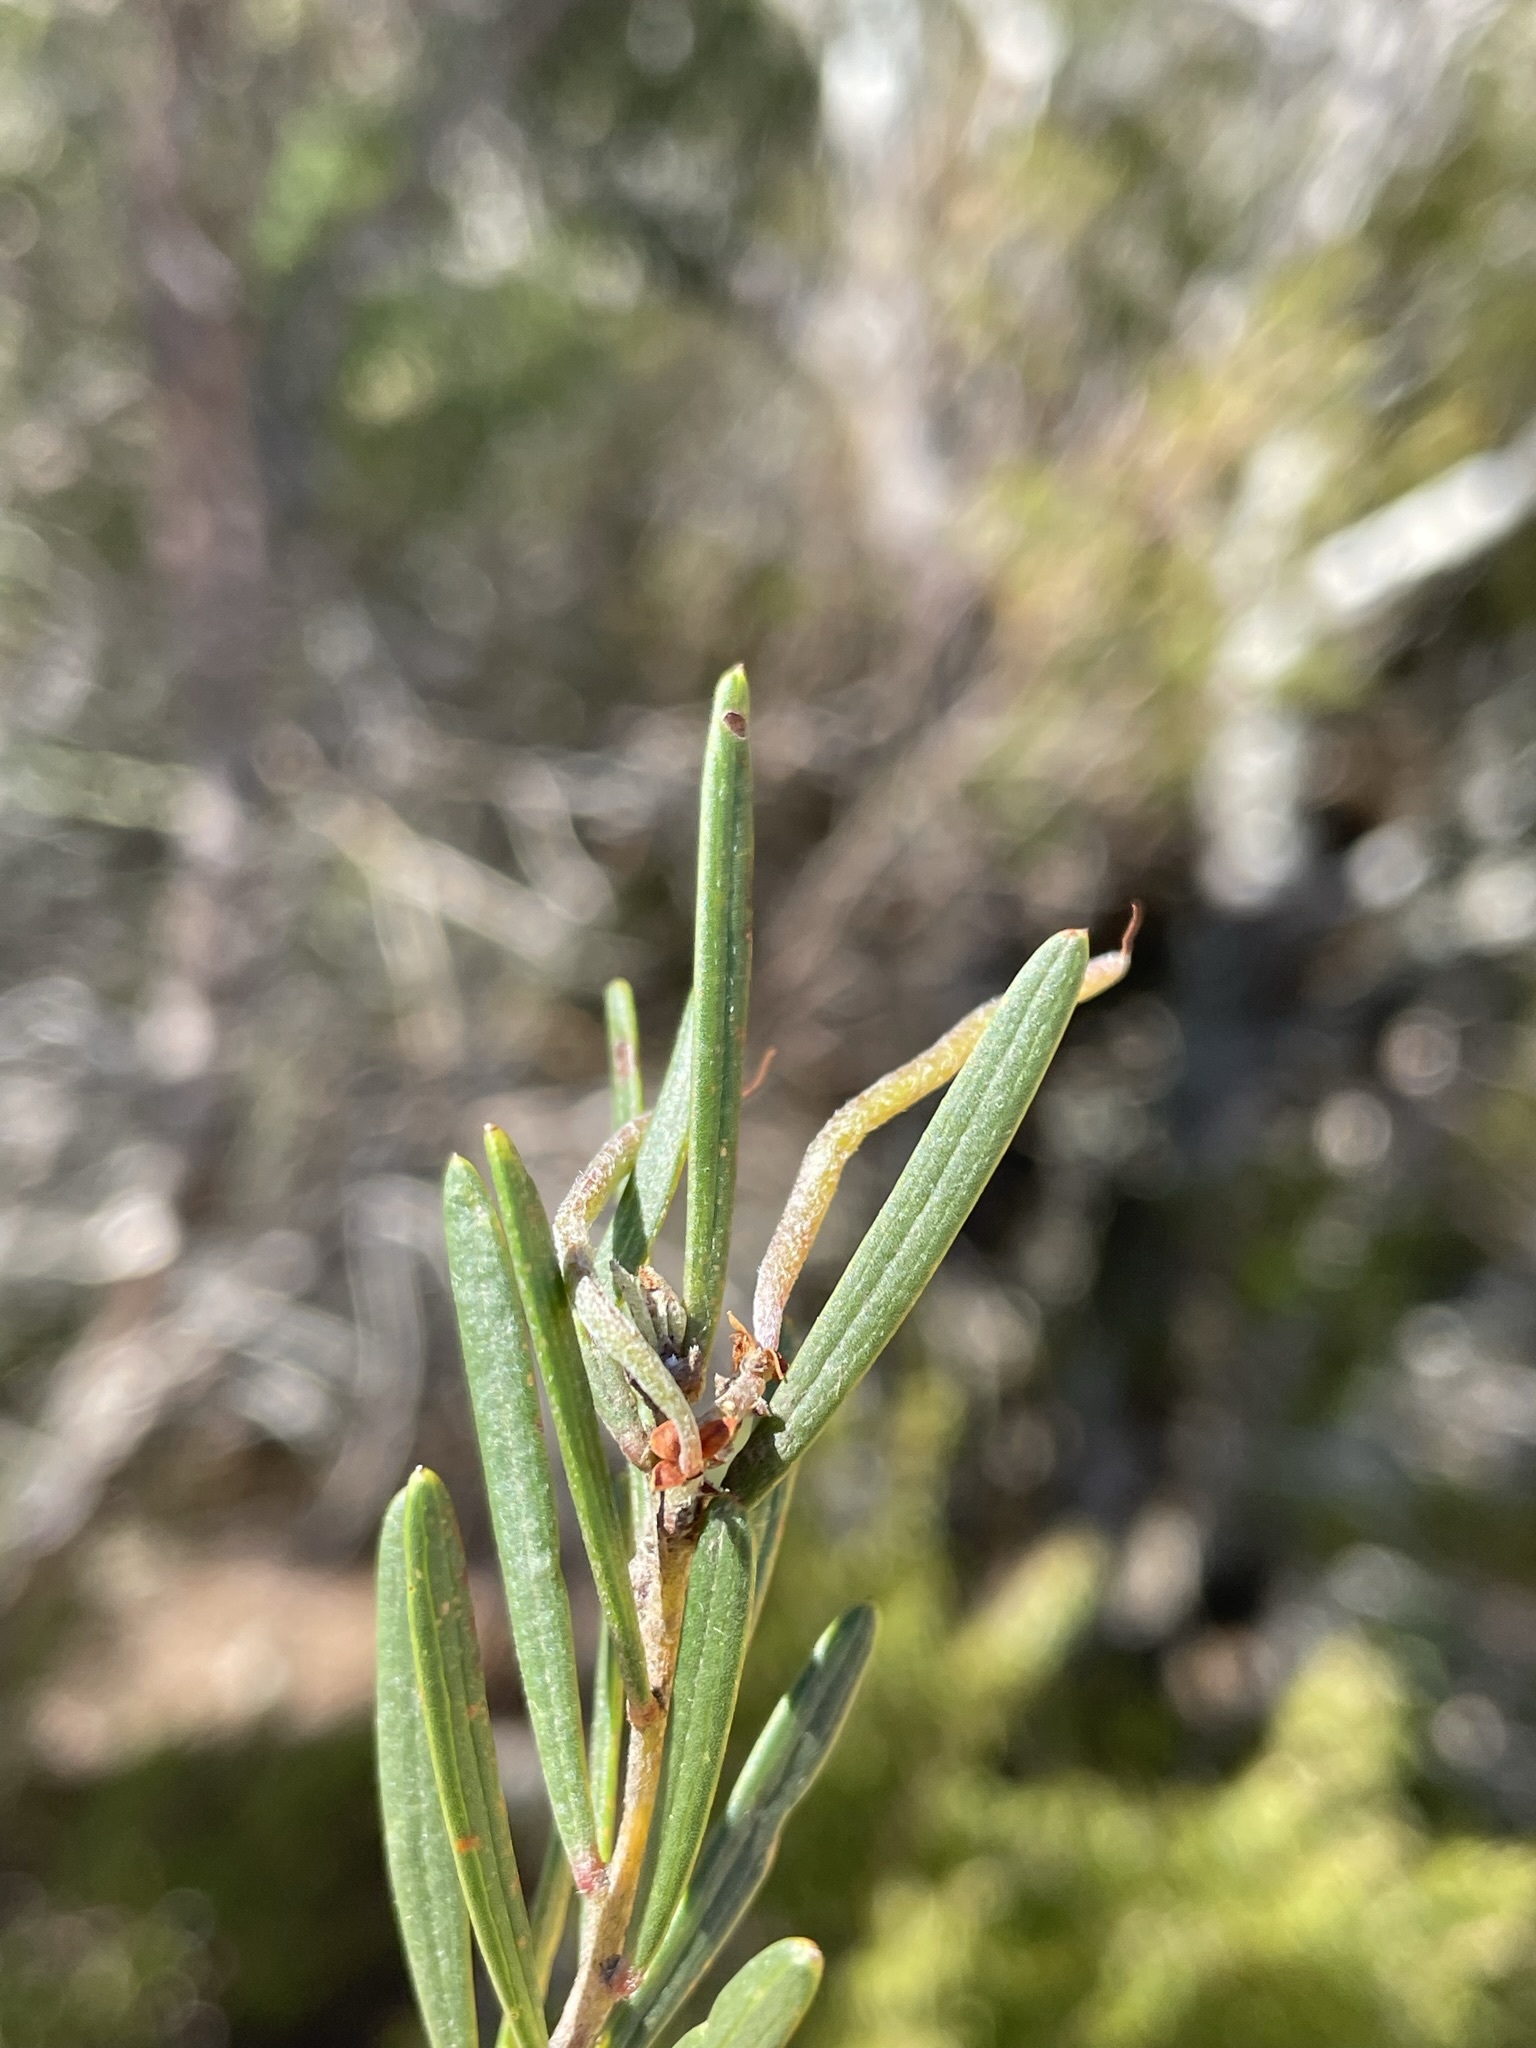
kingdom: Plantae
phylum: Tracheophyta
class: Magnoliopsida
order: Fabales
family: Fabaceae
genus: Acacia
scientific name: Acacia mucronata
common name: Variable sallow wattle
